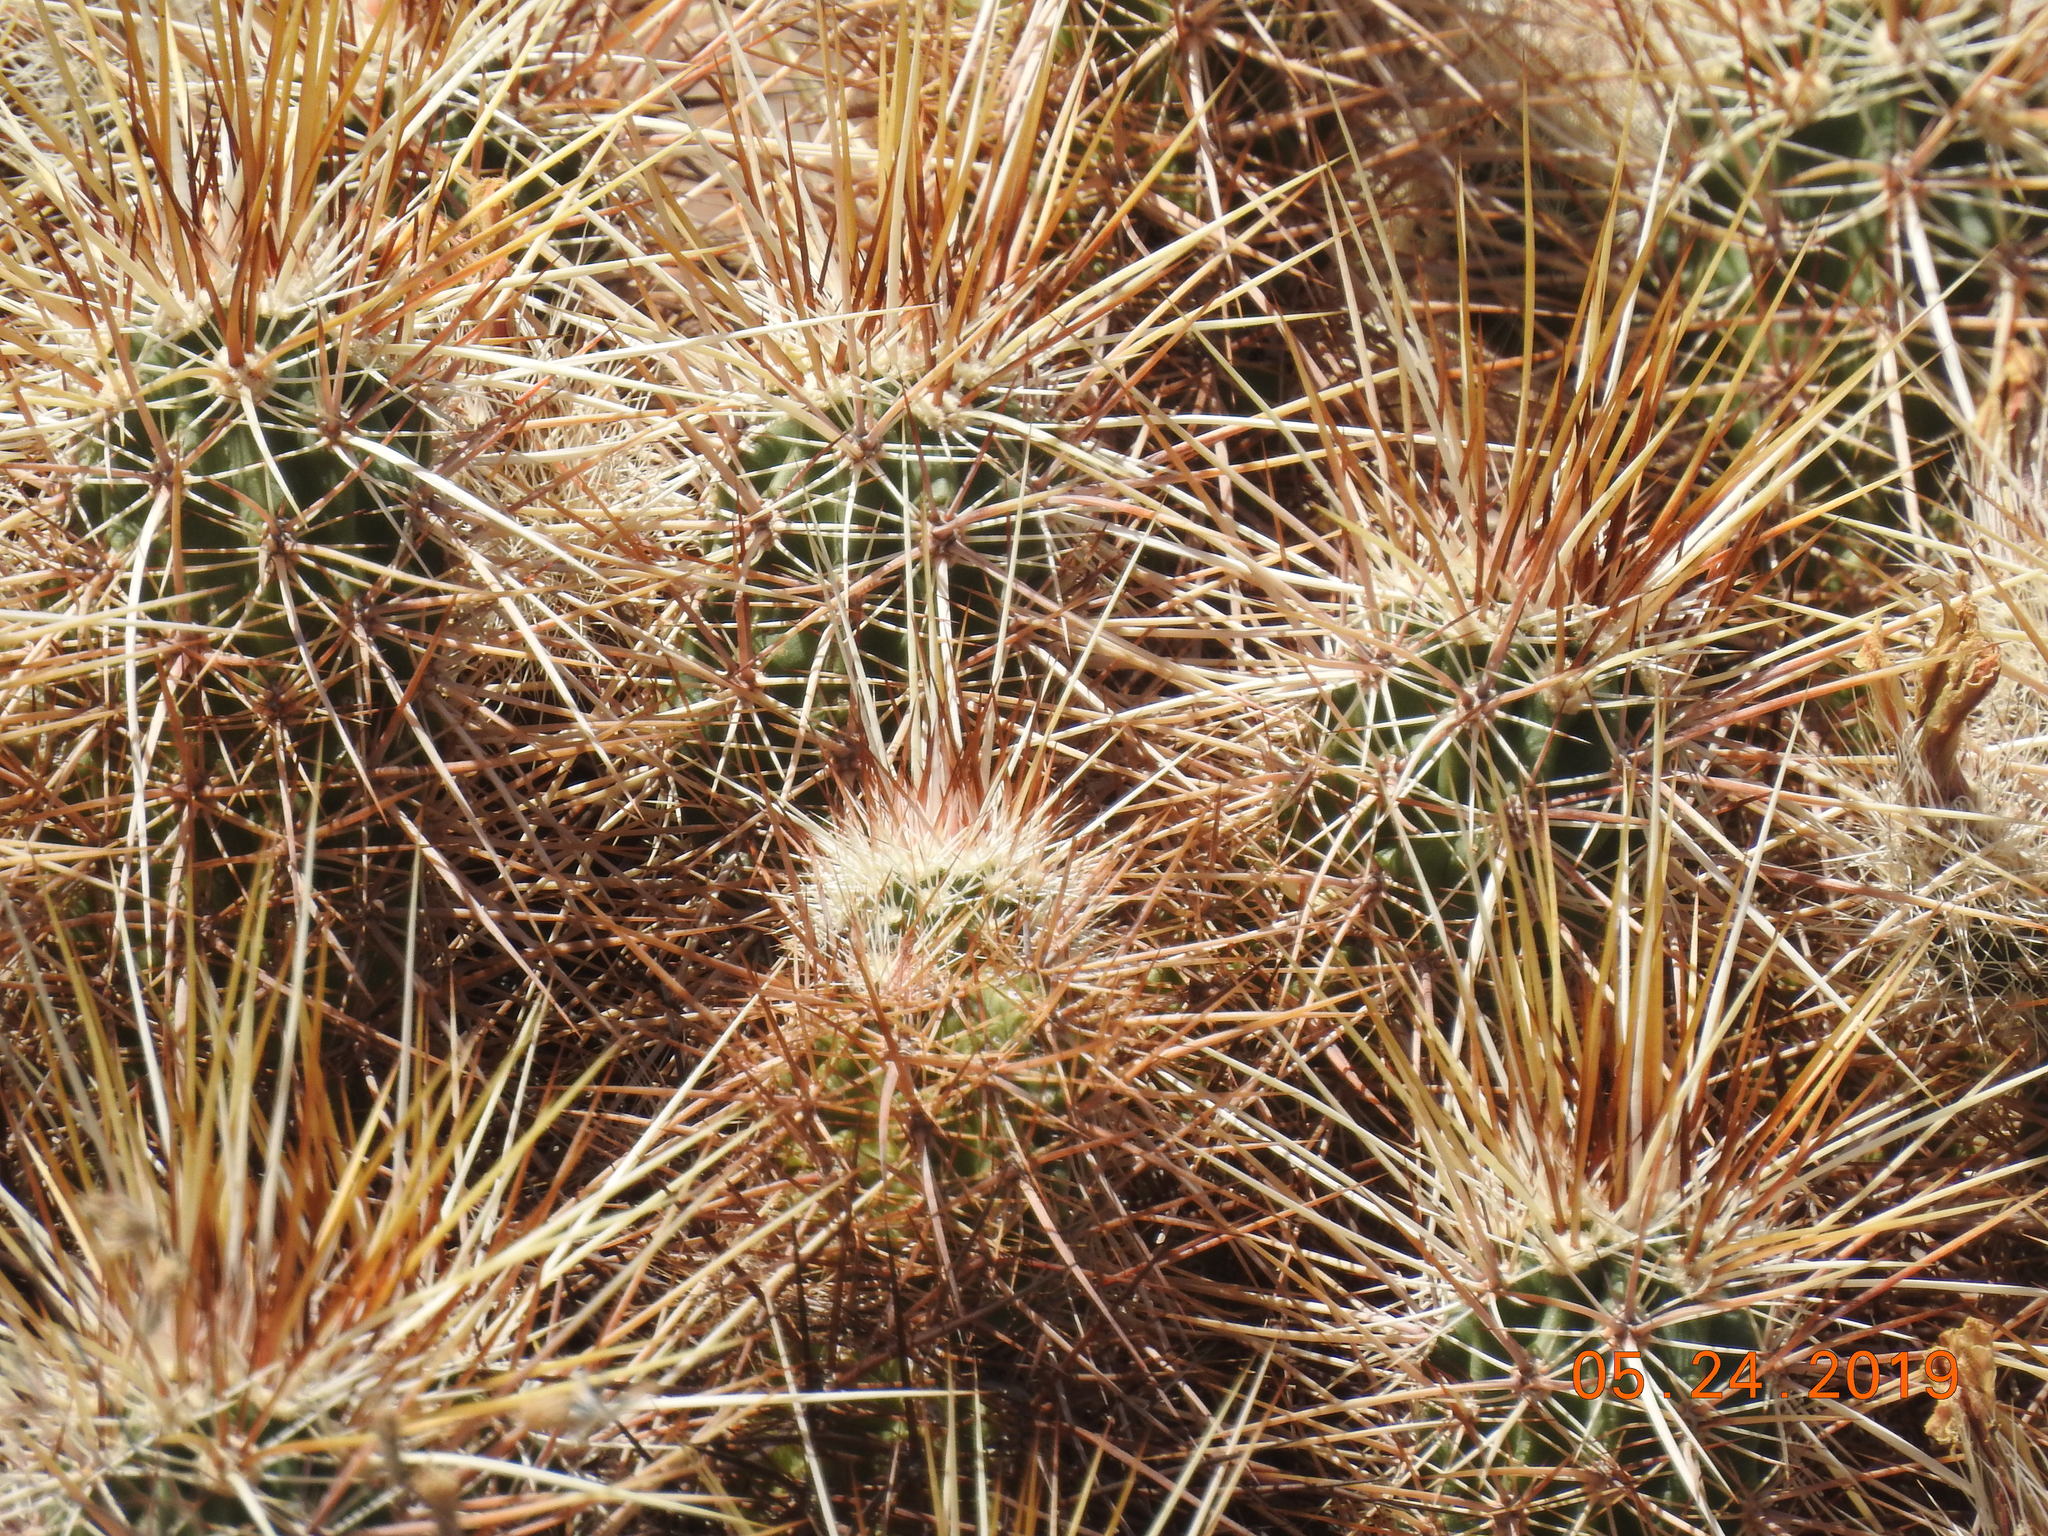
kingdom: Plantae
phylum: Tracheophyta
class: Magnoliopsida
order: Caryophyllales
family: Cactaceae
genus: Echinocereus
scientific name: Echinocereus engelmannii
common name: Engelmann's hedgehog cactus
